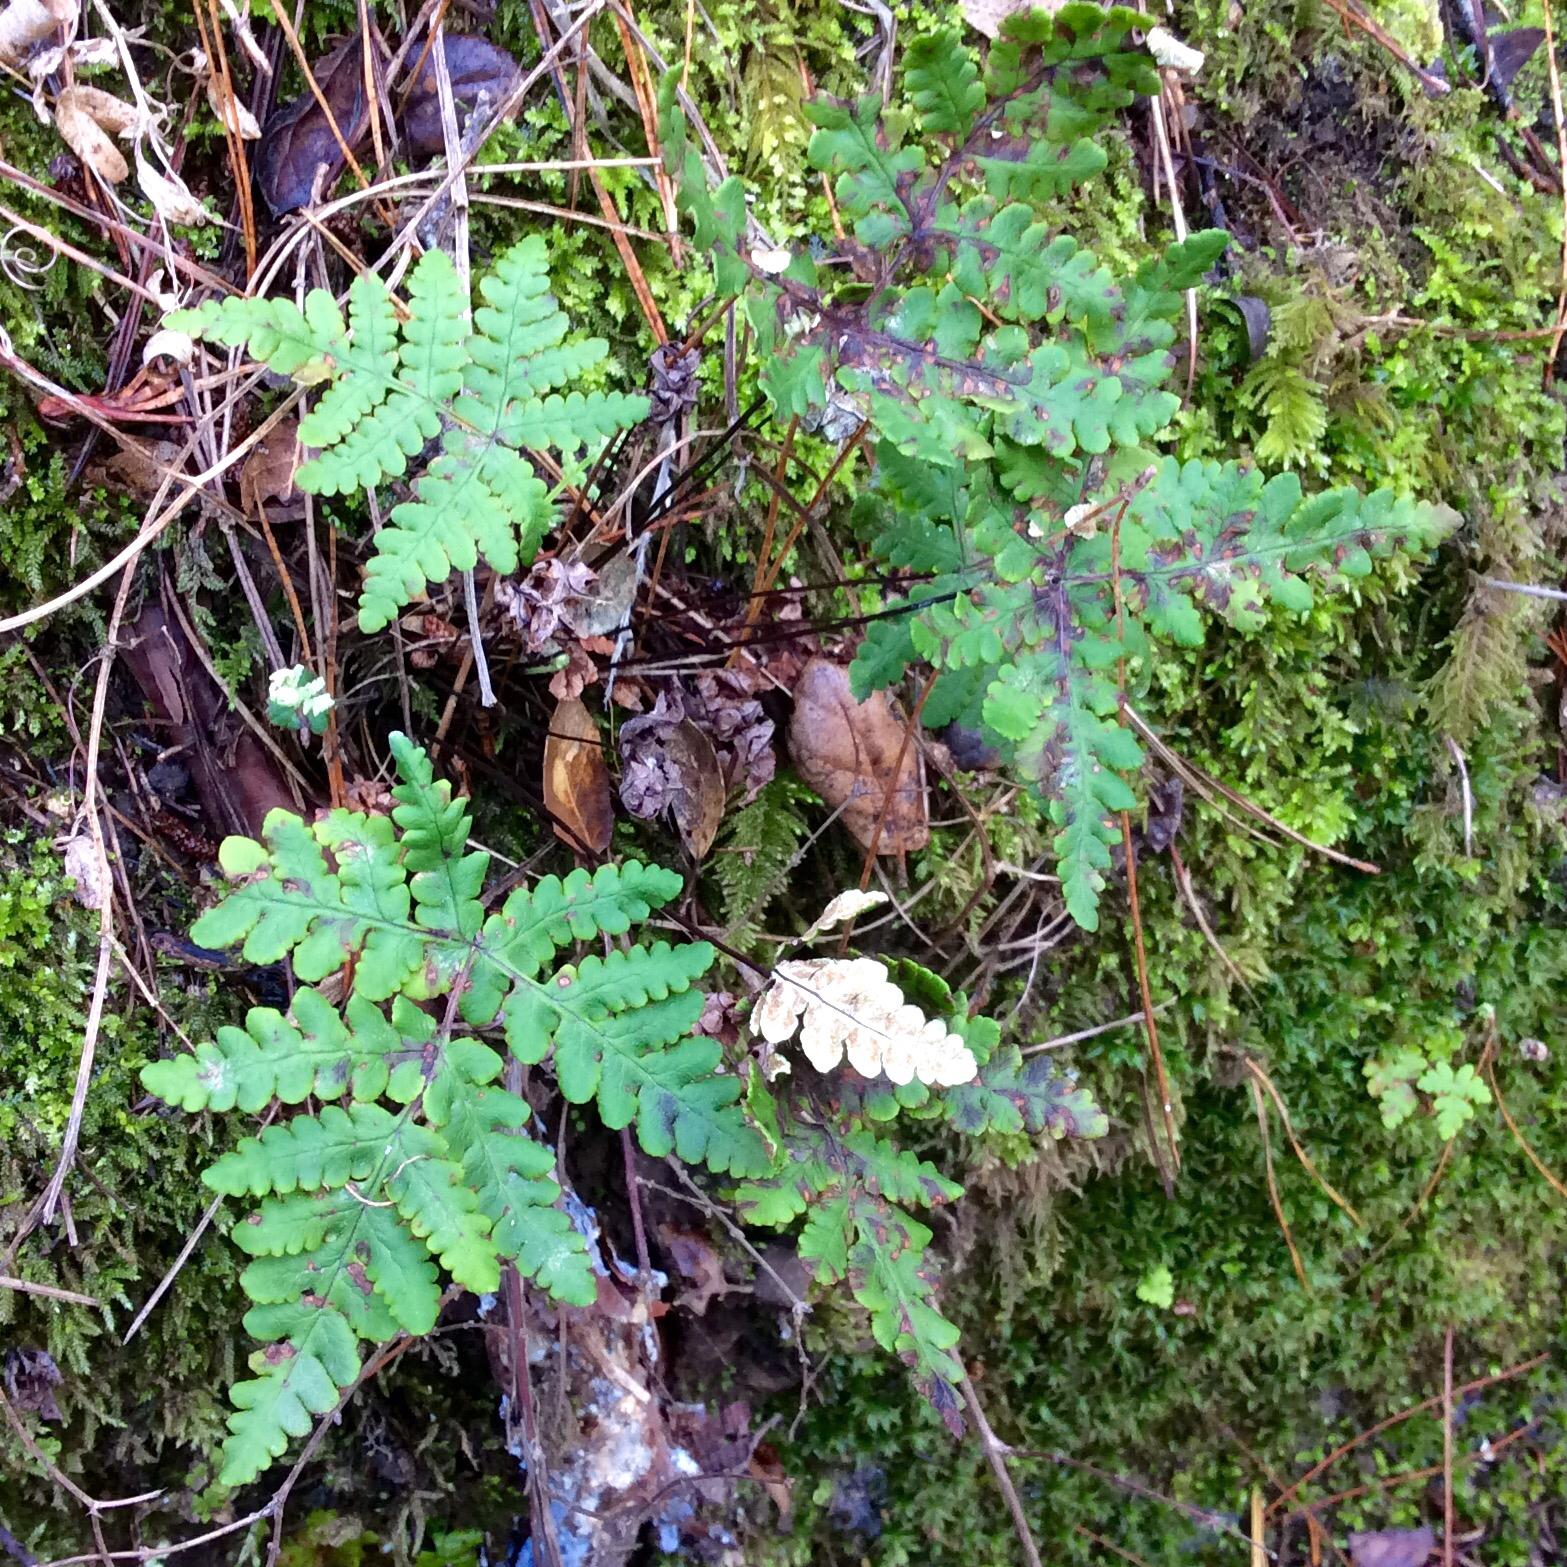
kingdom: Plantae
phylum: Tracheophyta
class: Polypodiopsida
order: Polypodiales
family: Pteridaceae
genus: Pentagramma
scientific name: Pentagramma triangularis
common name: Gold fern
